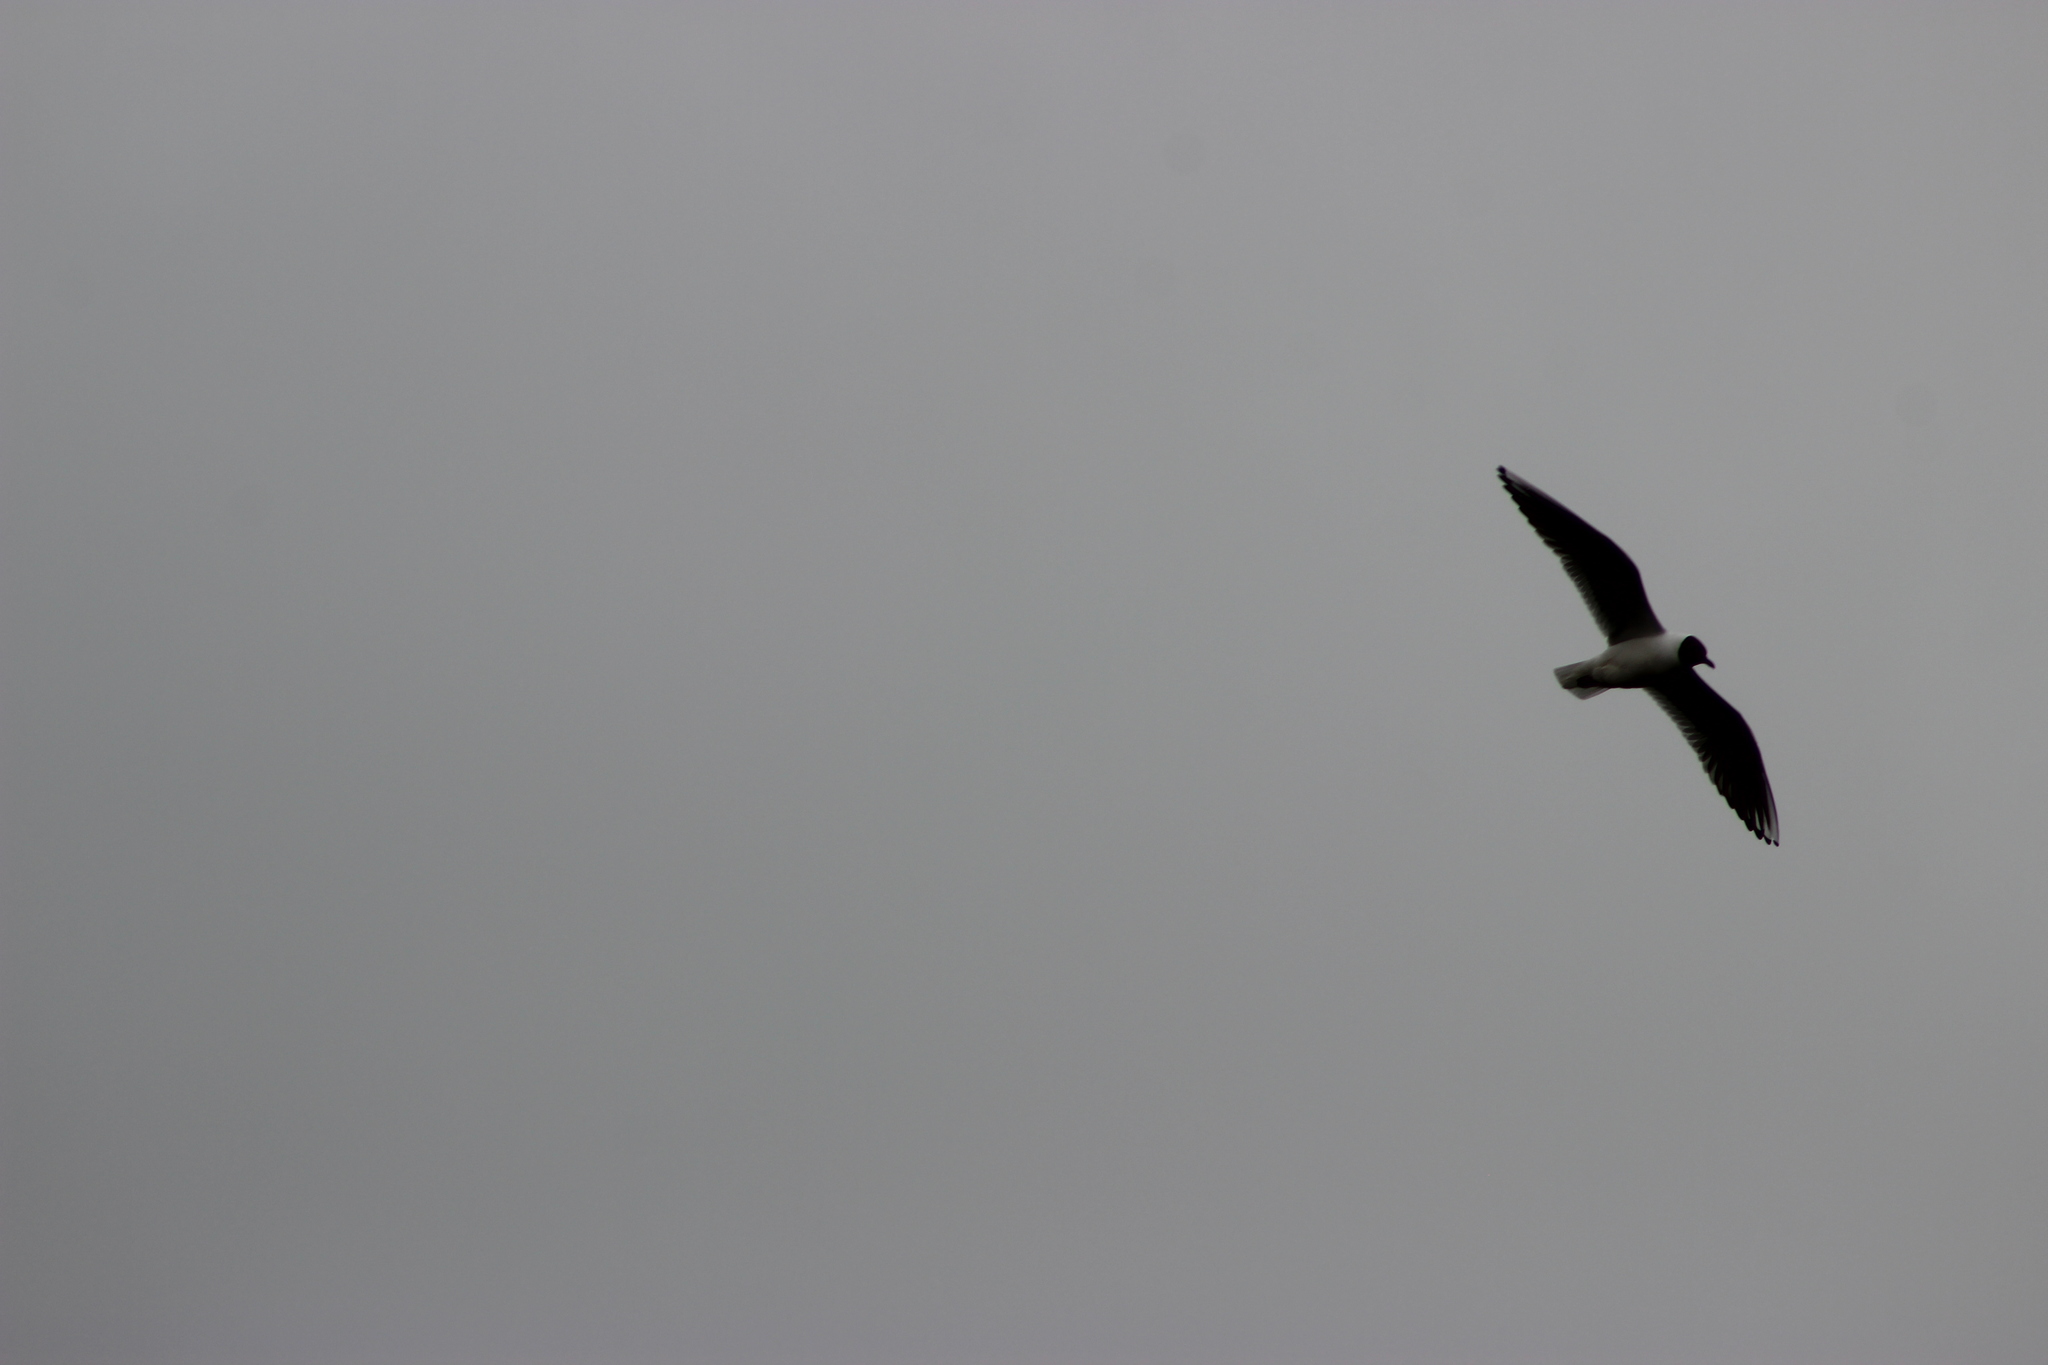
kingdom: Animalia
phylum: Chordata
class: Aves
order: Charadriiformes
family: Laridae
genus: Chroicocephalus
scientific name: Chroicocephalus ridibundus
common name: Black-headed gull
